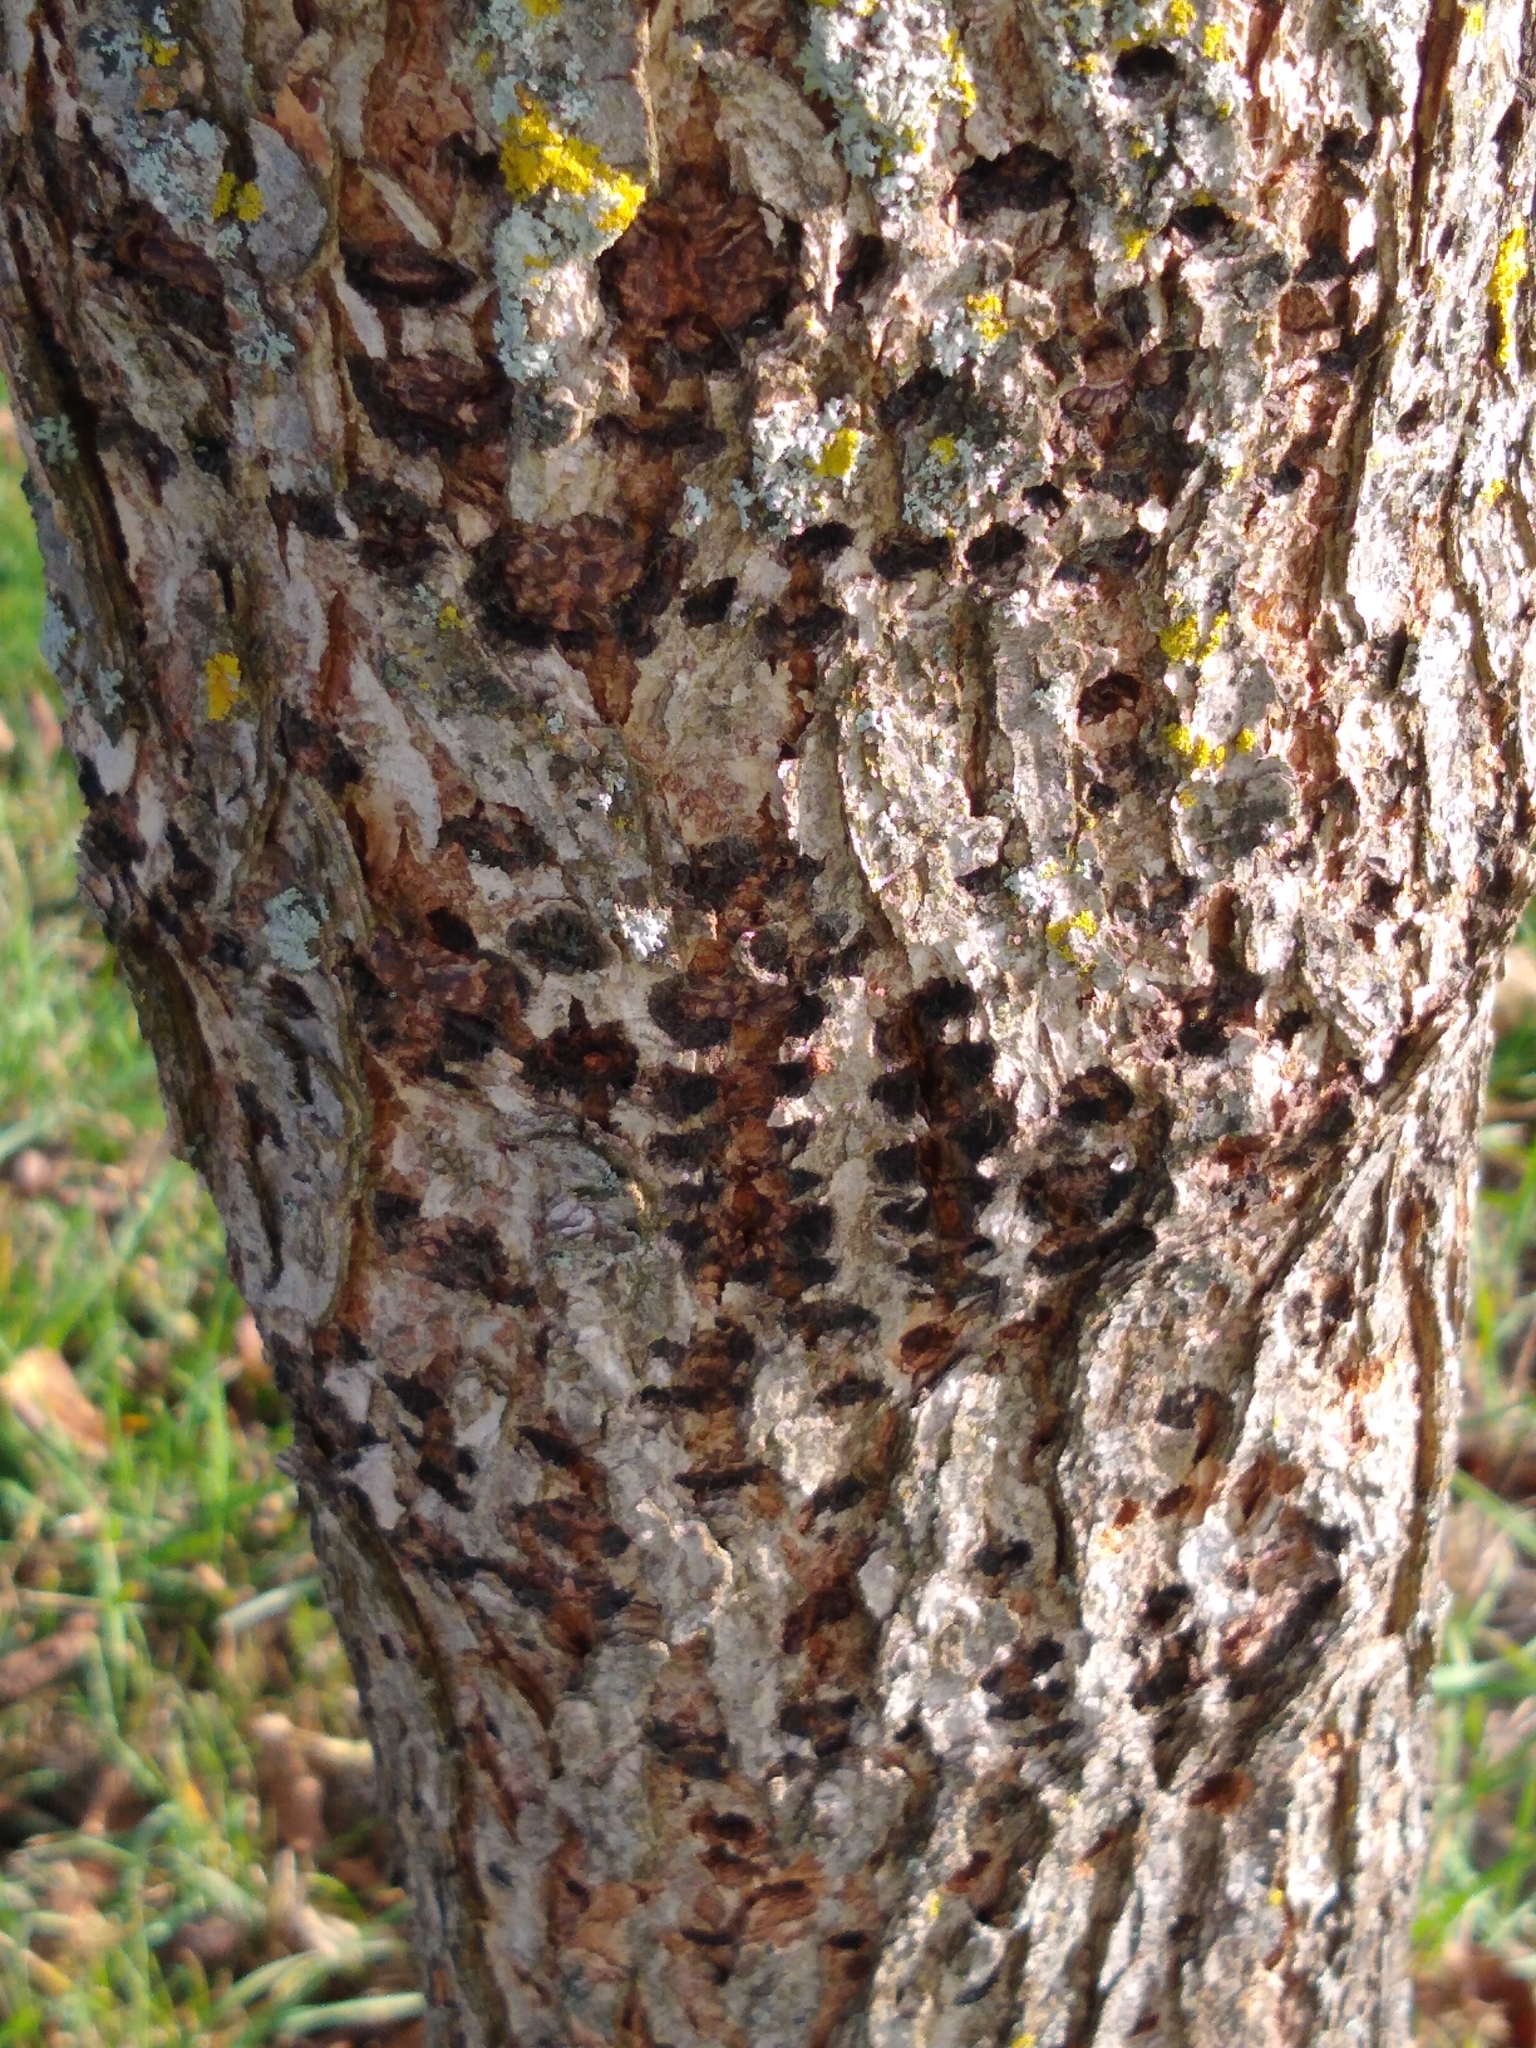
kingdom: Animalia
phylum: Chordata
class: Aves
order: Piciformes
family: Picidae
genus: Sphyrapicus
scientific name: Sphyrapicus varius
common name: Yellow-bellied sapsucker
